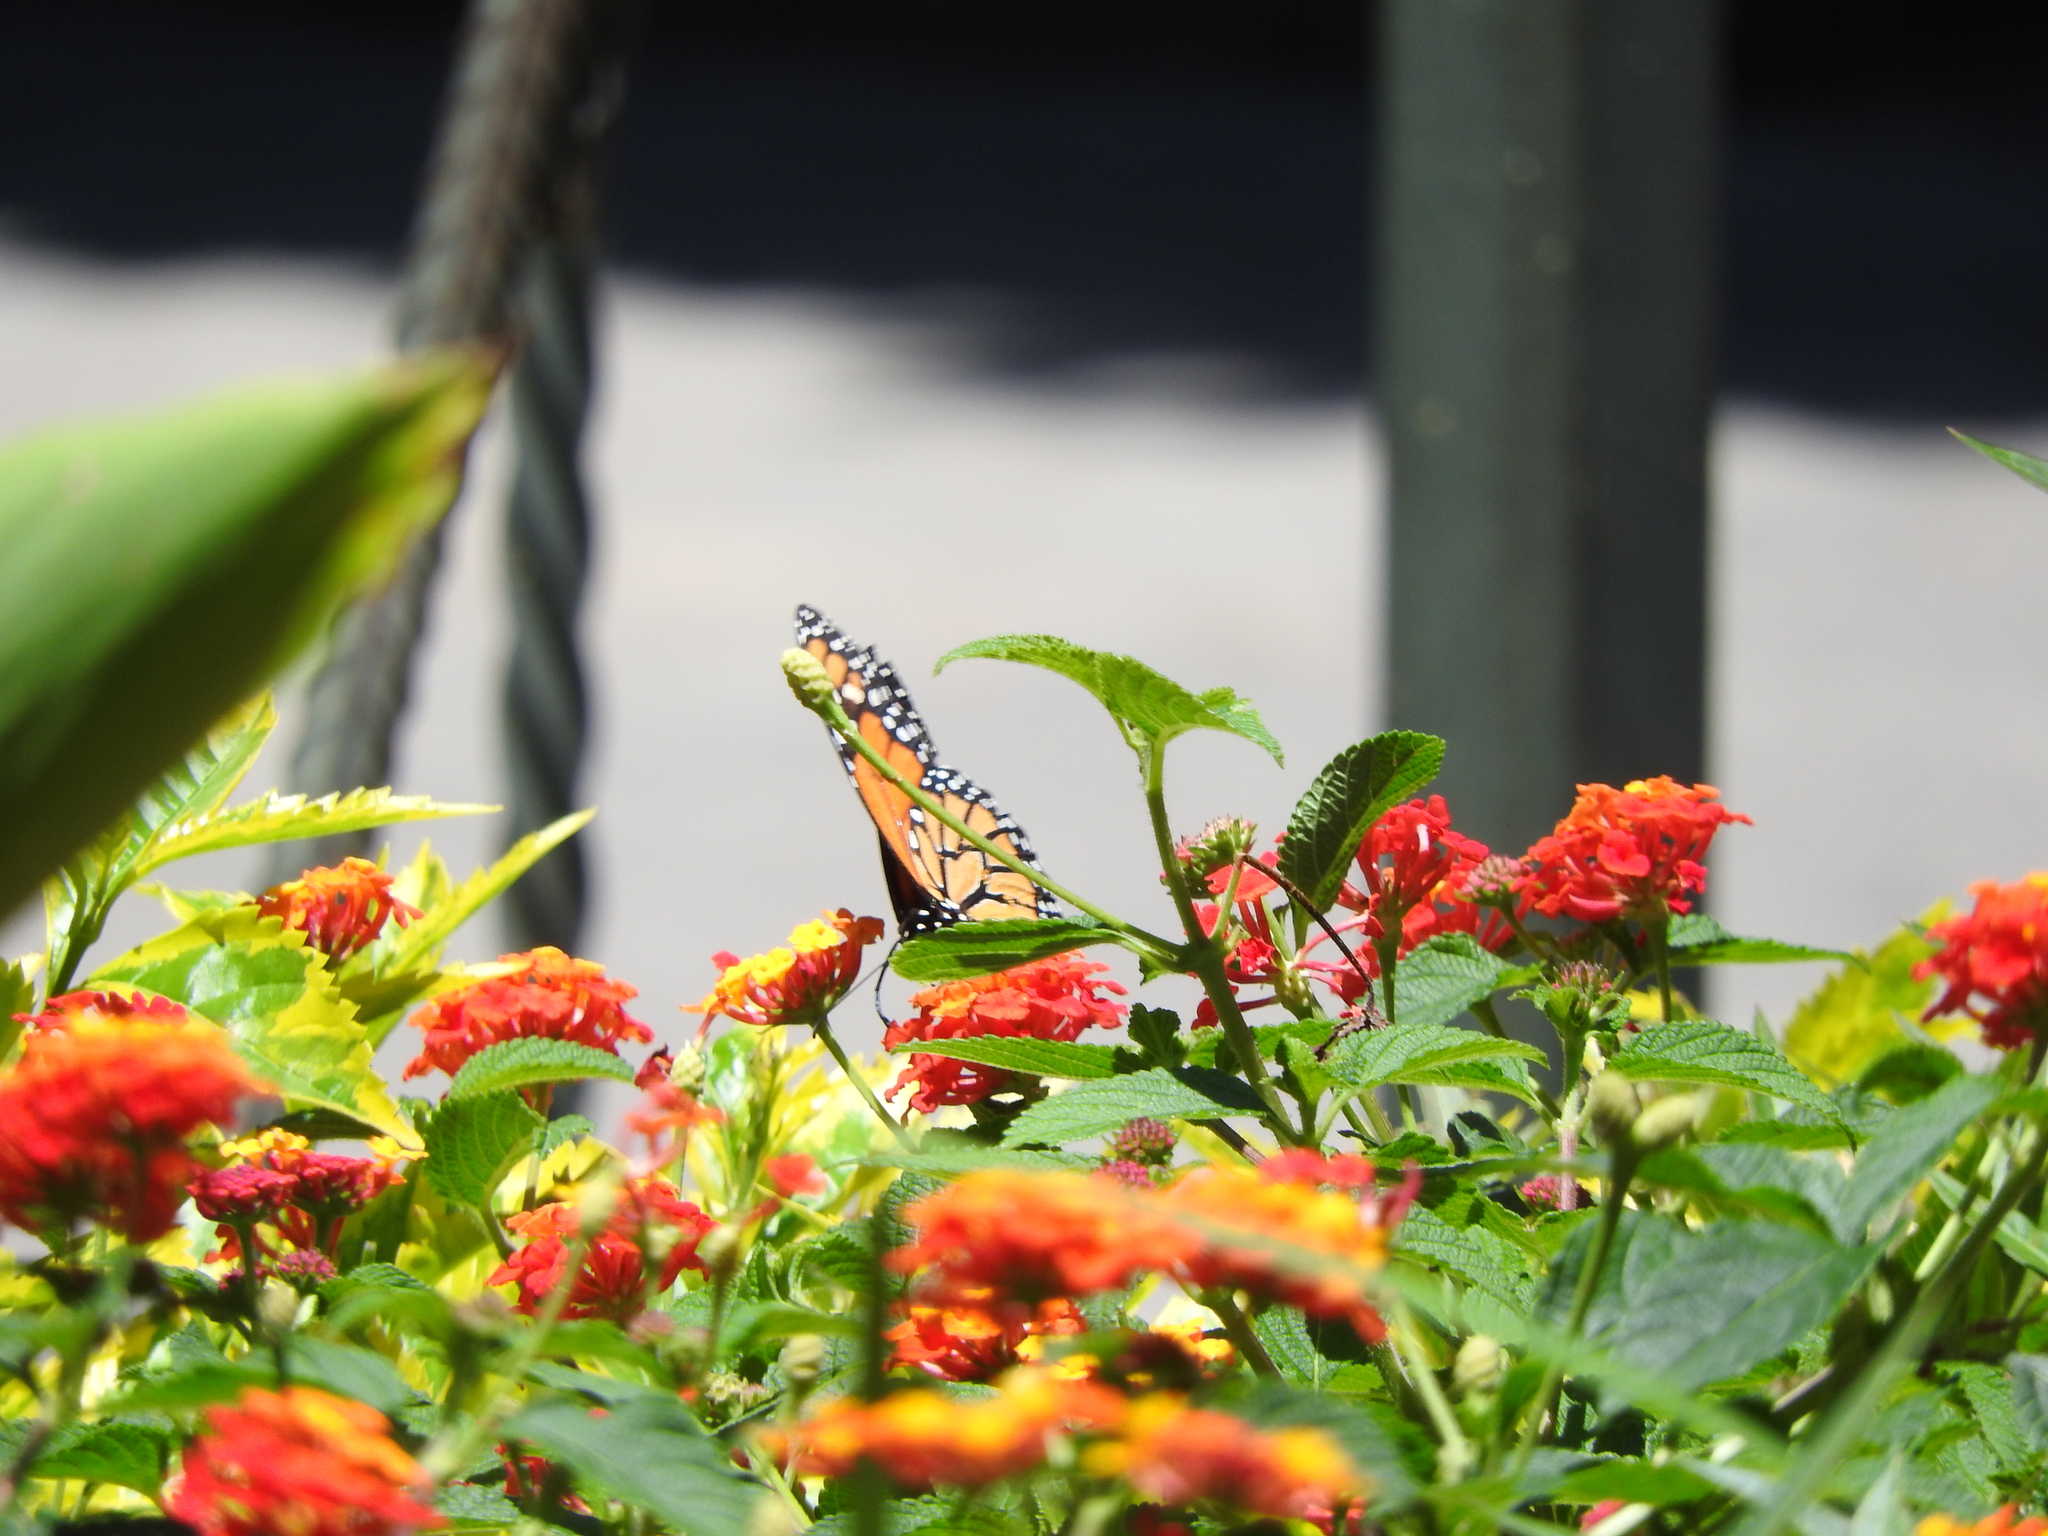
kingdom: Animalia
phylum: Arthropoda
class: Insecta
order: Lepidoptera
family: Nymphalidae
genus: Danaus
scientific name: Danaus plexippus
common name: Monarch
